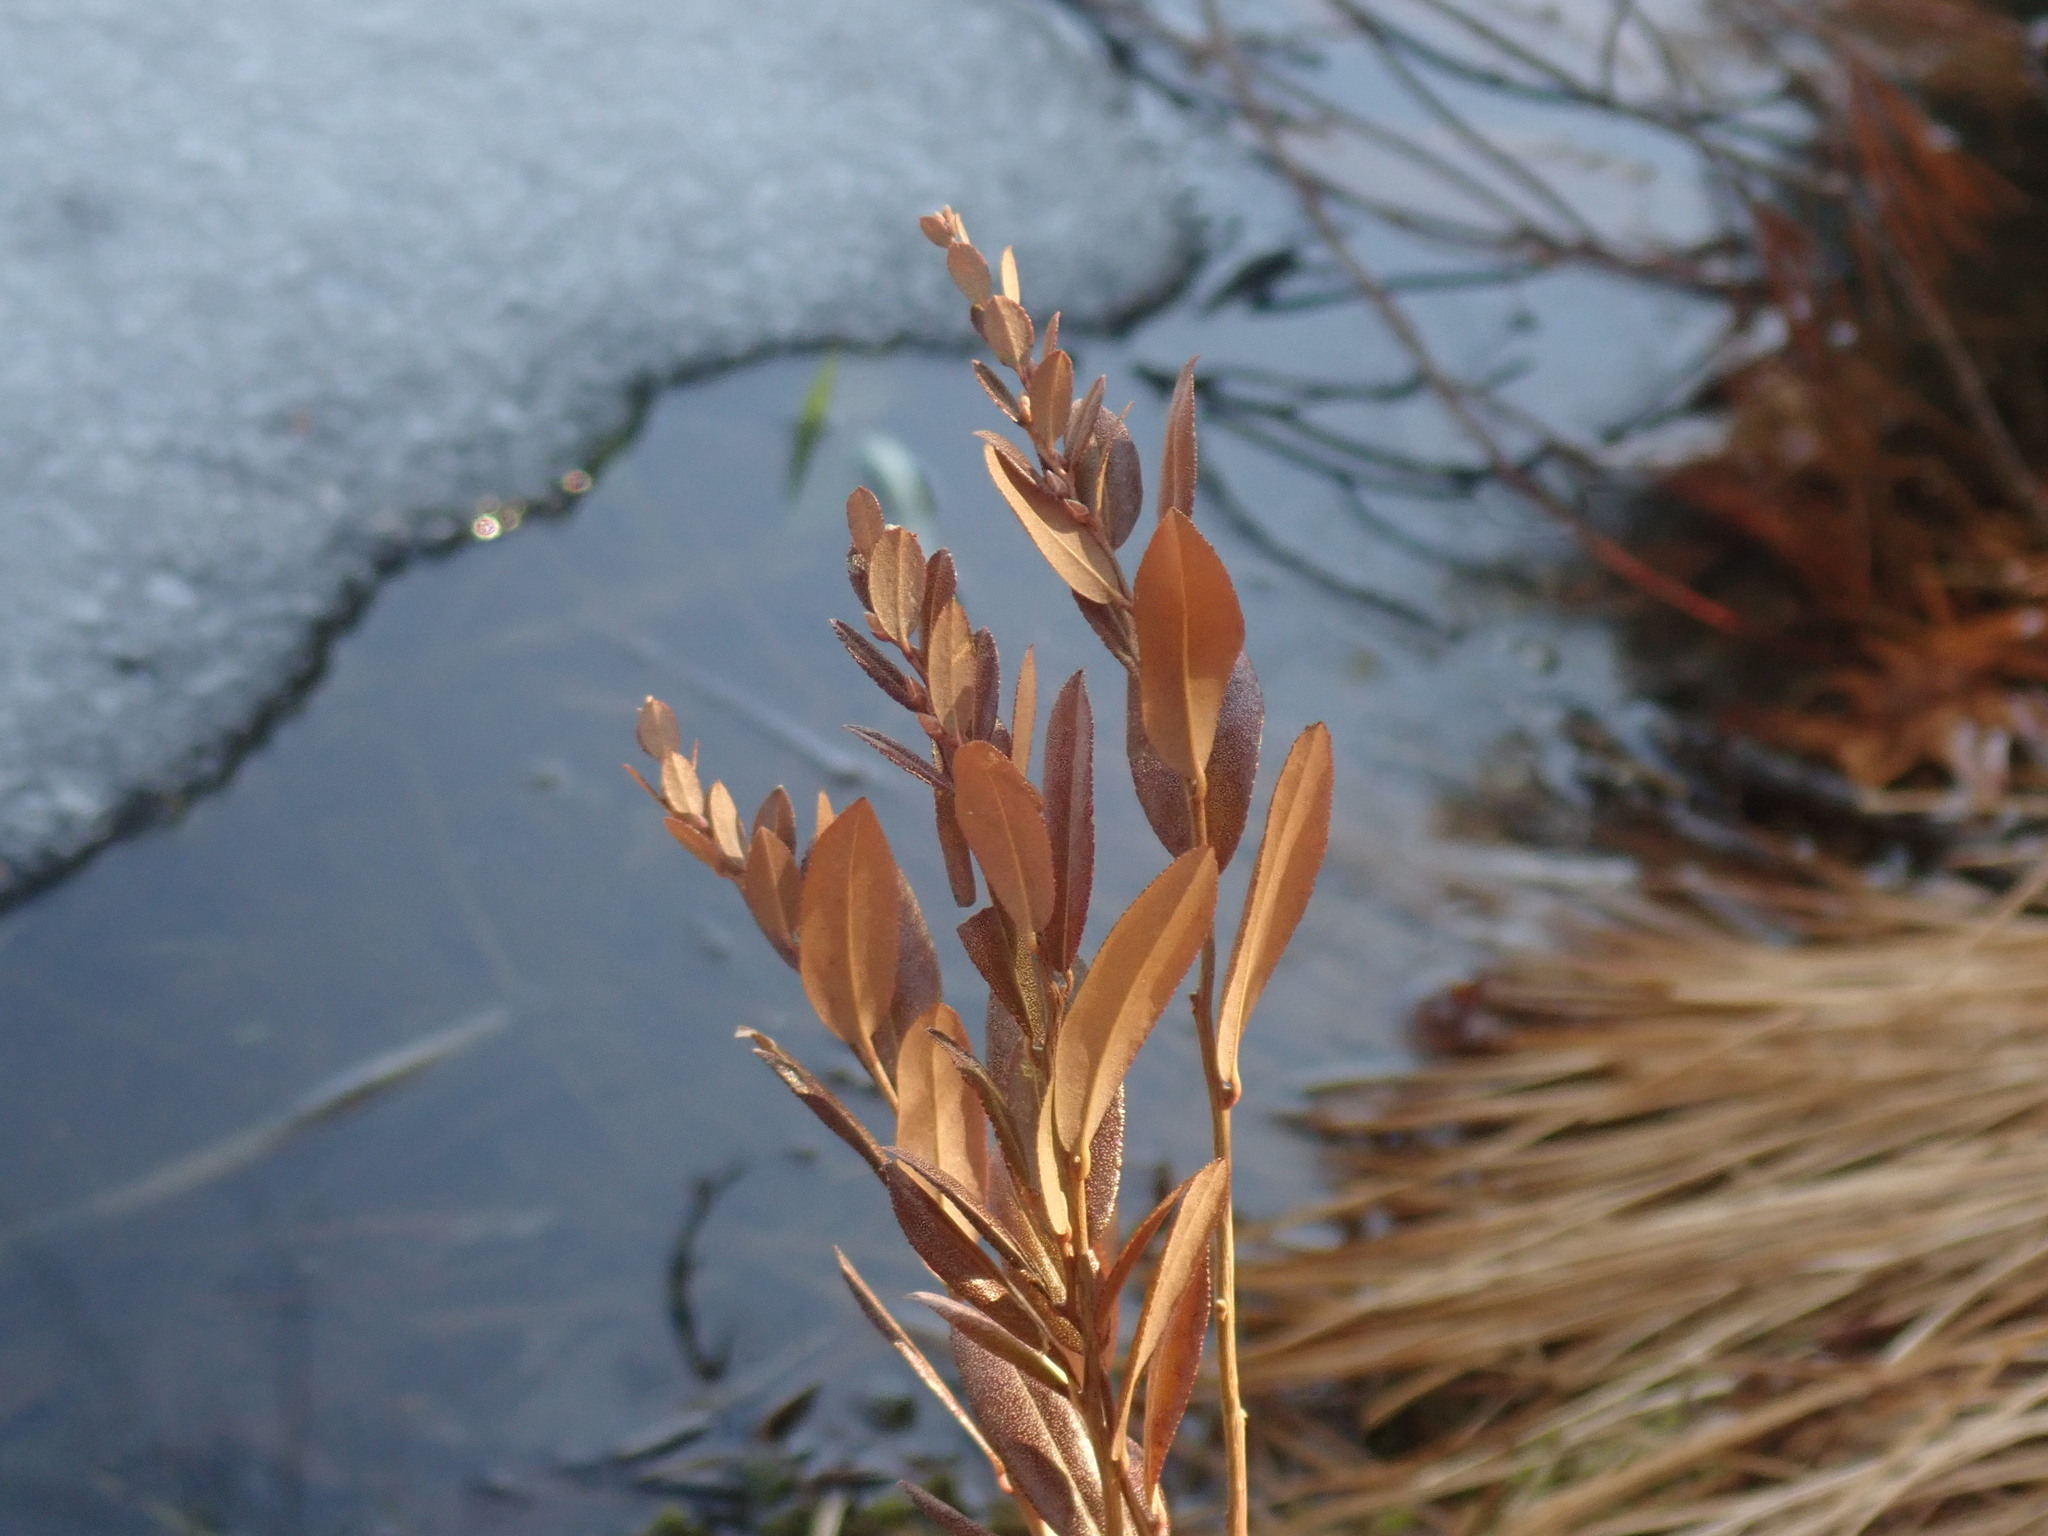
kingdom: Plantae
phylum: Tracheophyta
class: Magnoliopsida
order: Ericales
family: Ericaceae
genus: Chamaedaphne
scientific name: Chamaedaphne calyculata
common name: Leatherleaf
